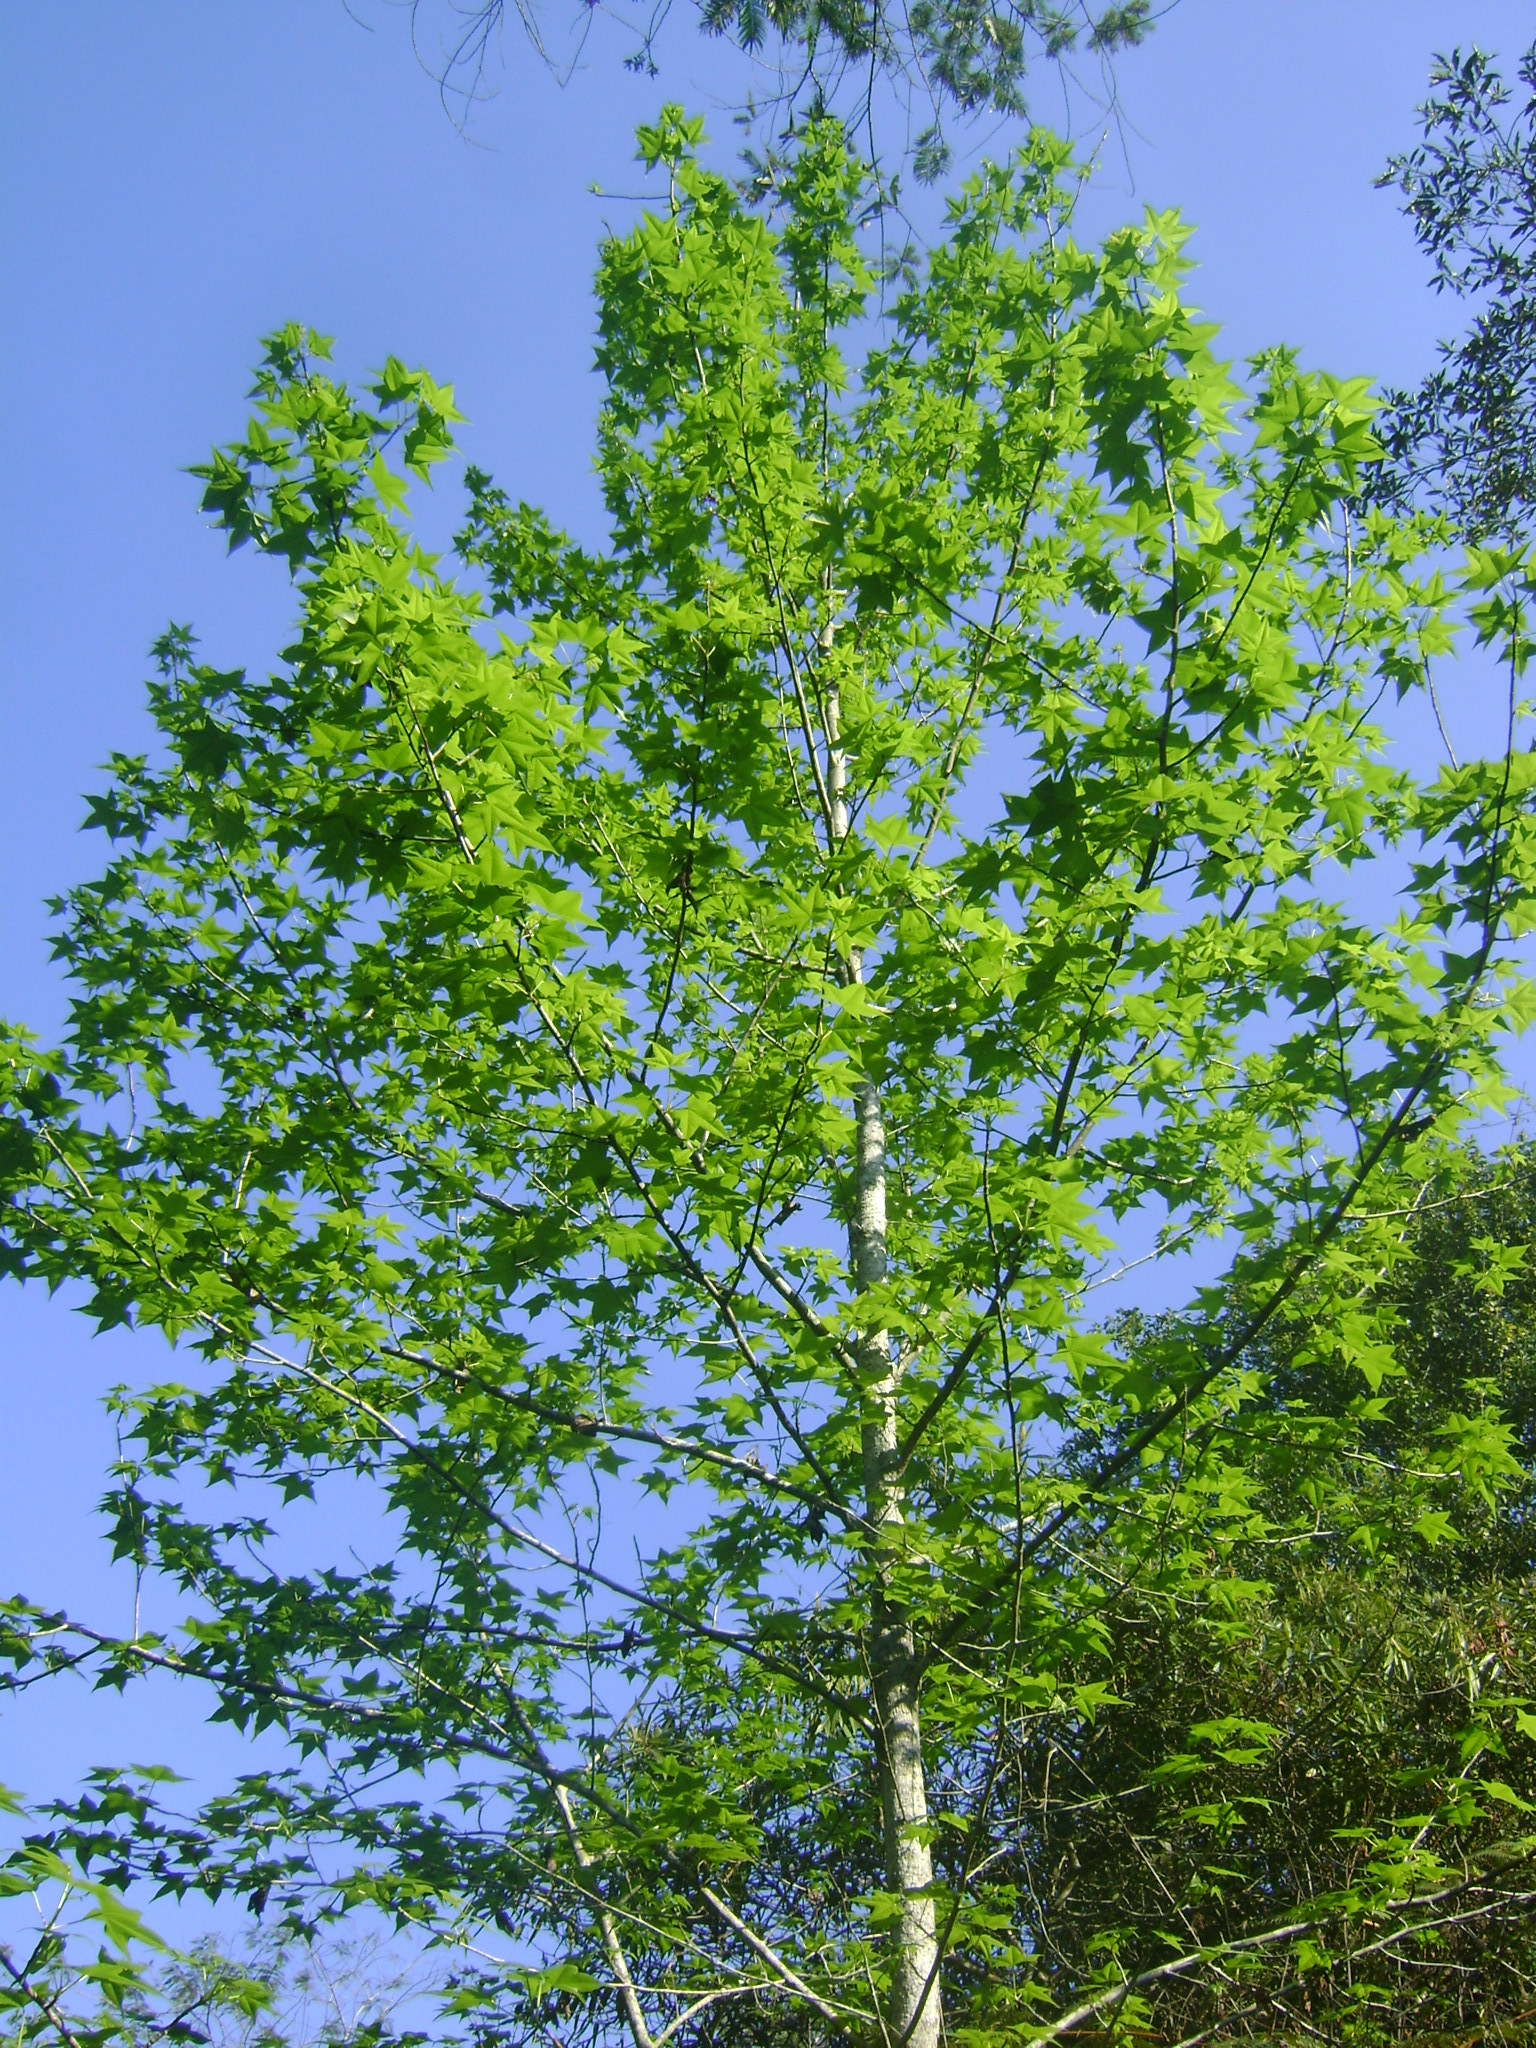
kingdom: Plantae
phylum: Tracheophyta
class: Magnoliopsida
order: Saxifragales
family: Altingiaceae
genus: Liquidambar
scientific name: Liquidambar styraciflua
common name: Sweet gum
